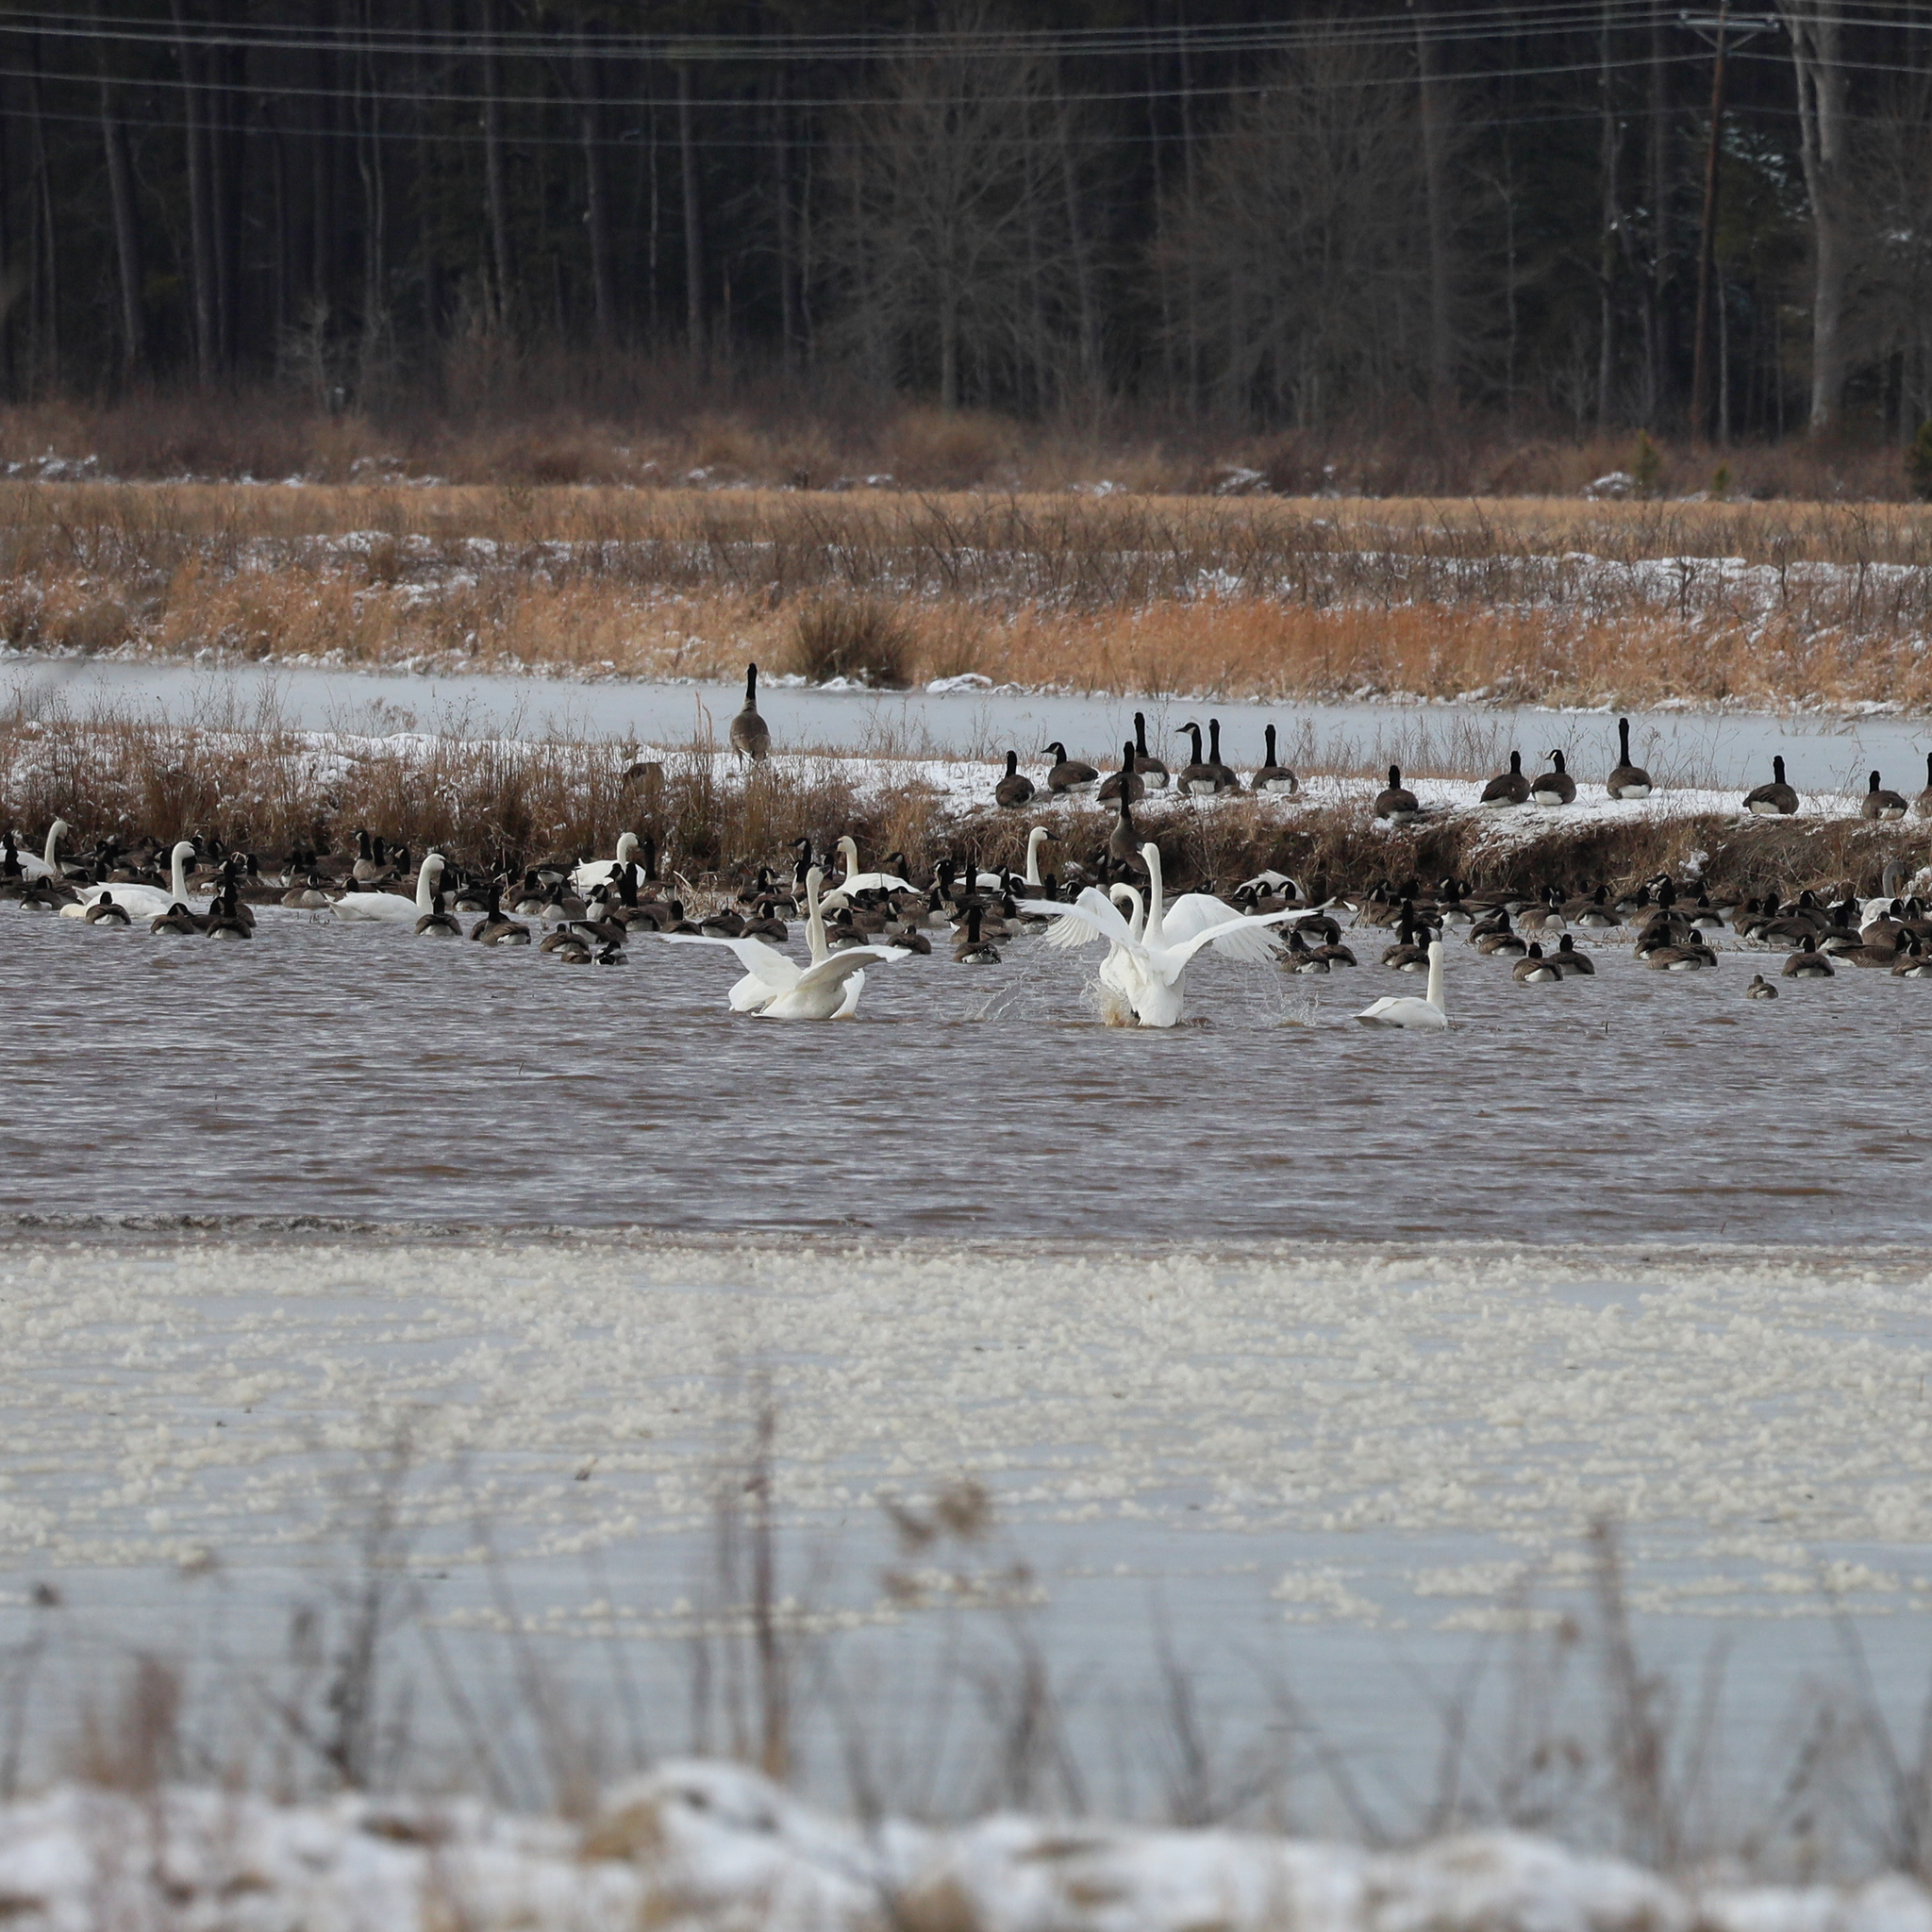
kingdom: Animalia
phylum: Chordata
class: Aves
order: Anseriformes
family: Anatidae
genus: Cygnus
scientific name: Cygnus columbianus
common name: Tundra swan
